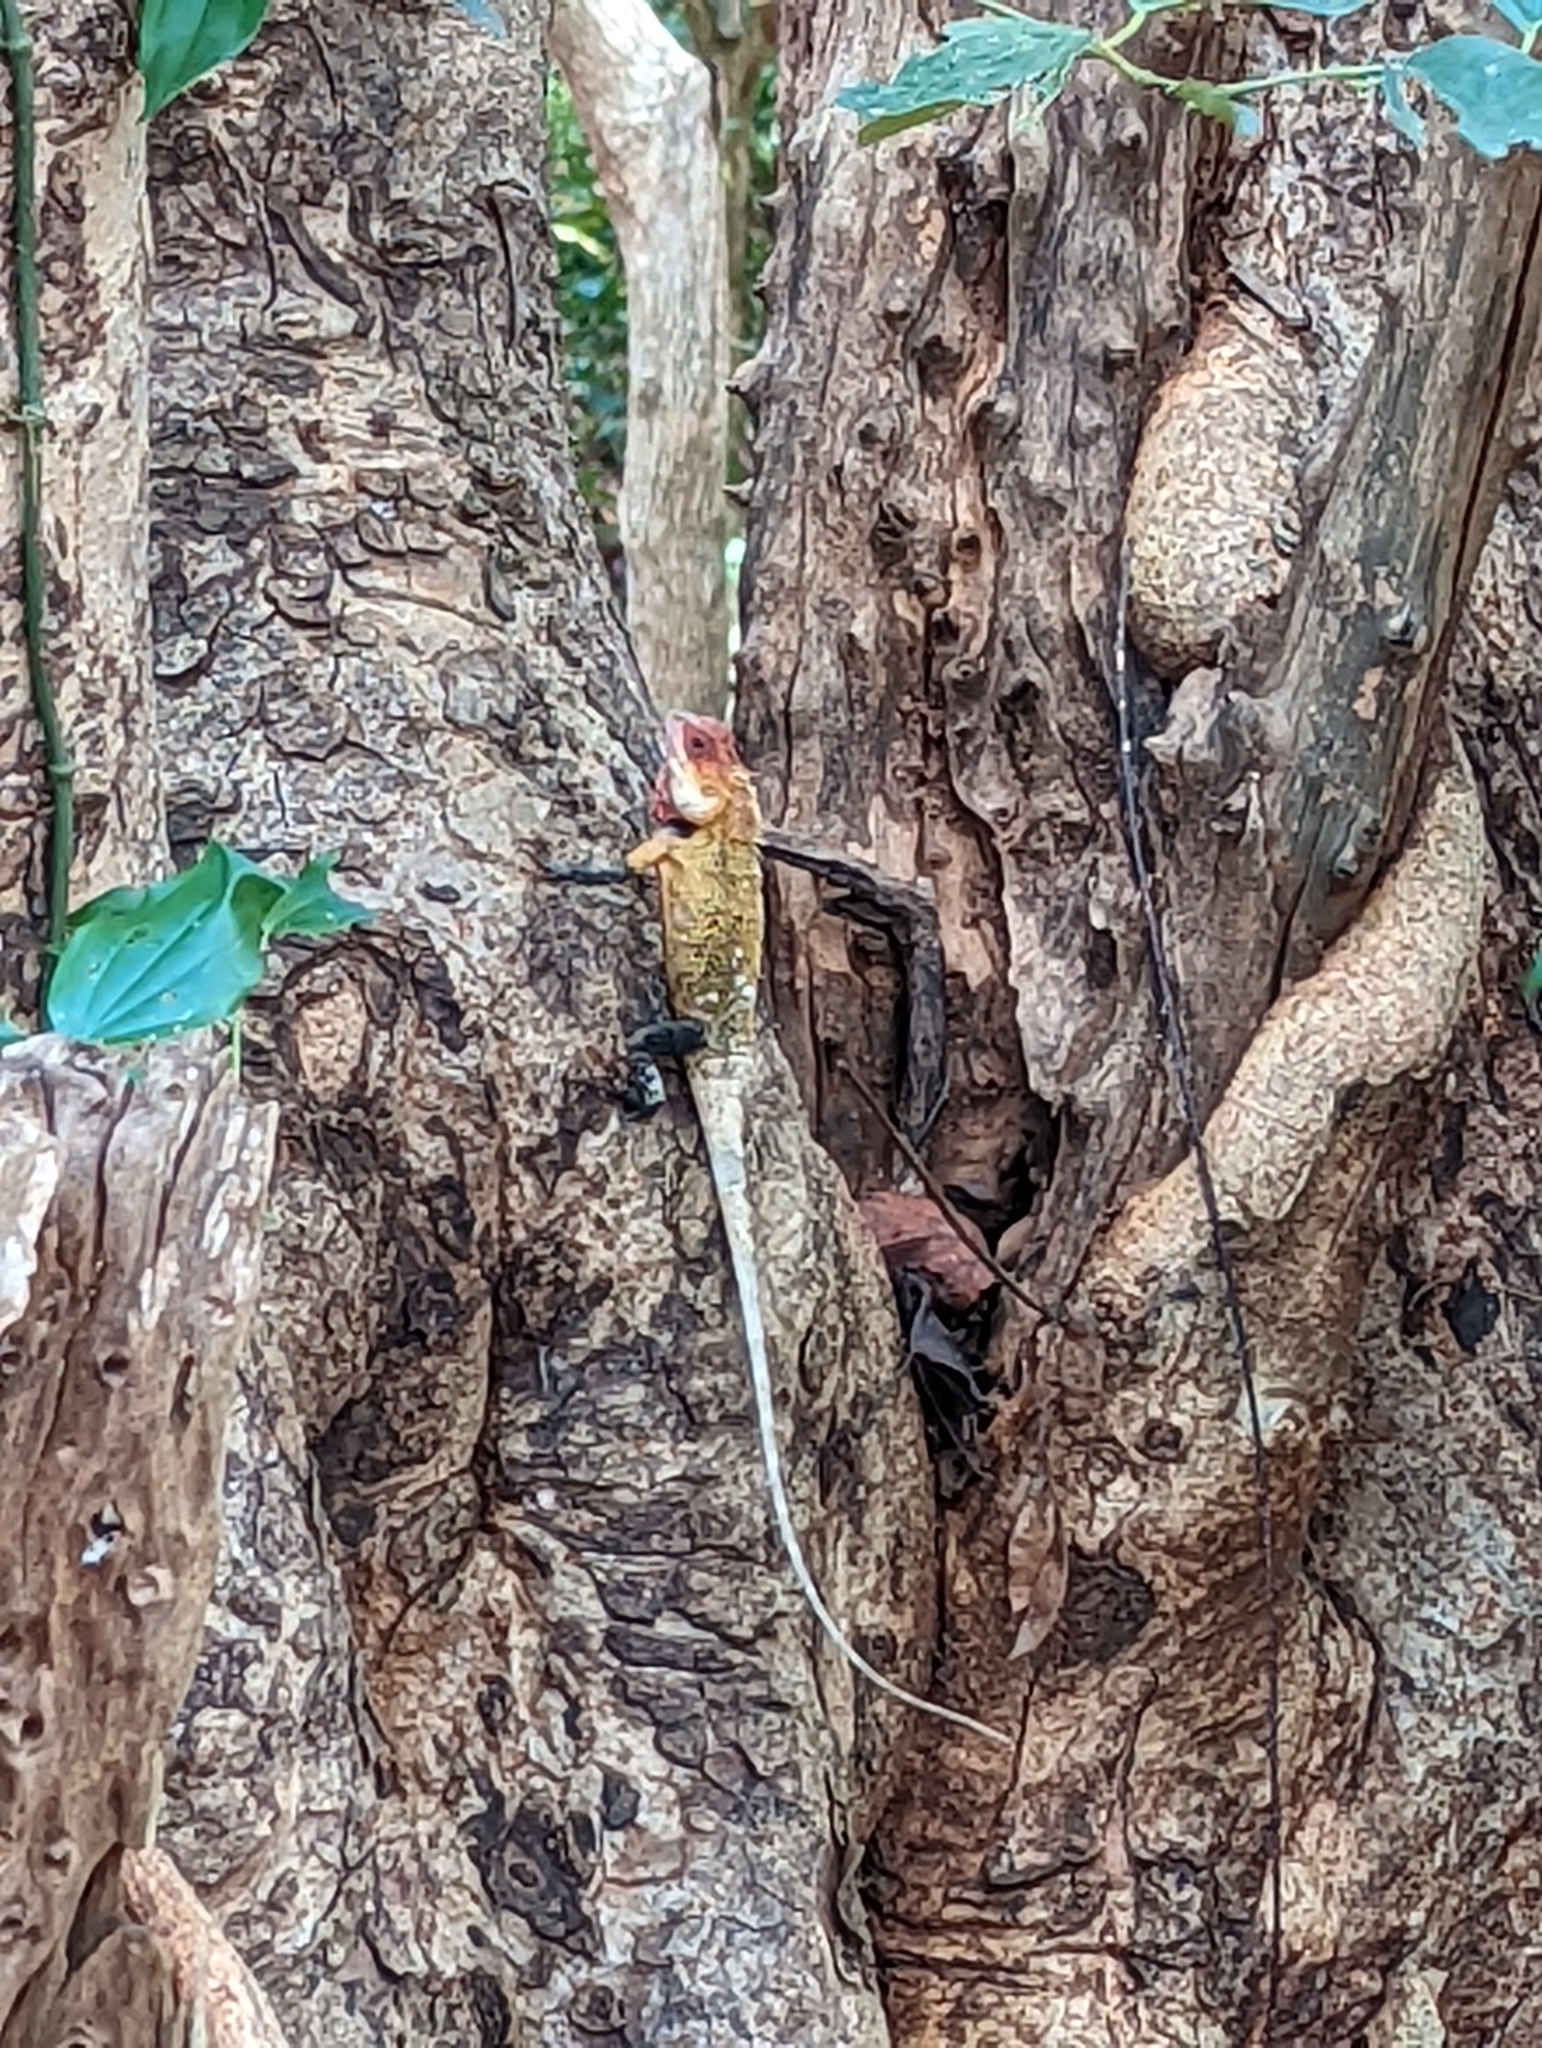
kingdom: Animalia
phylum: Chordata
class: Squamata
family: Agamidae
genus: Calotes
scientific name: Calotes versicolor
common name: Oriental garden lizard
